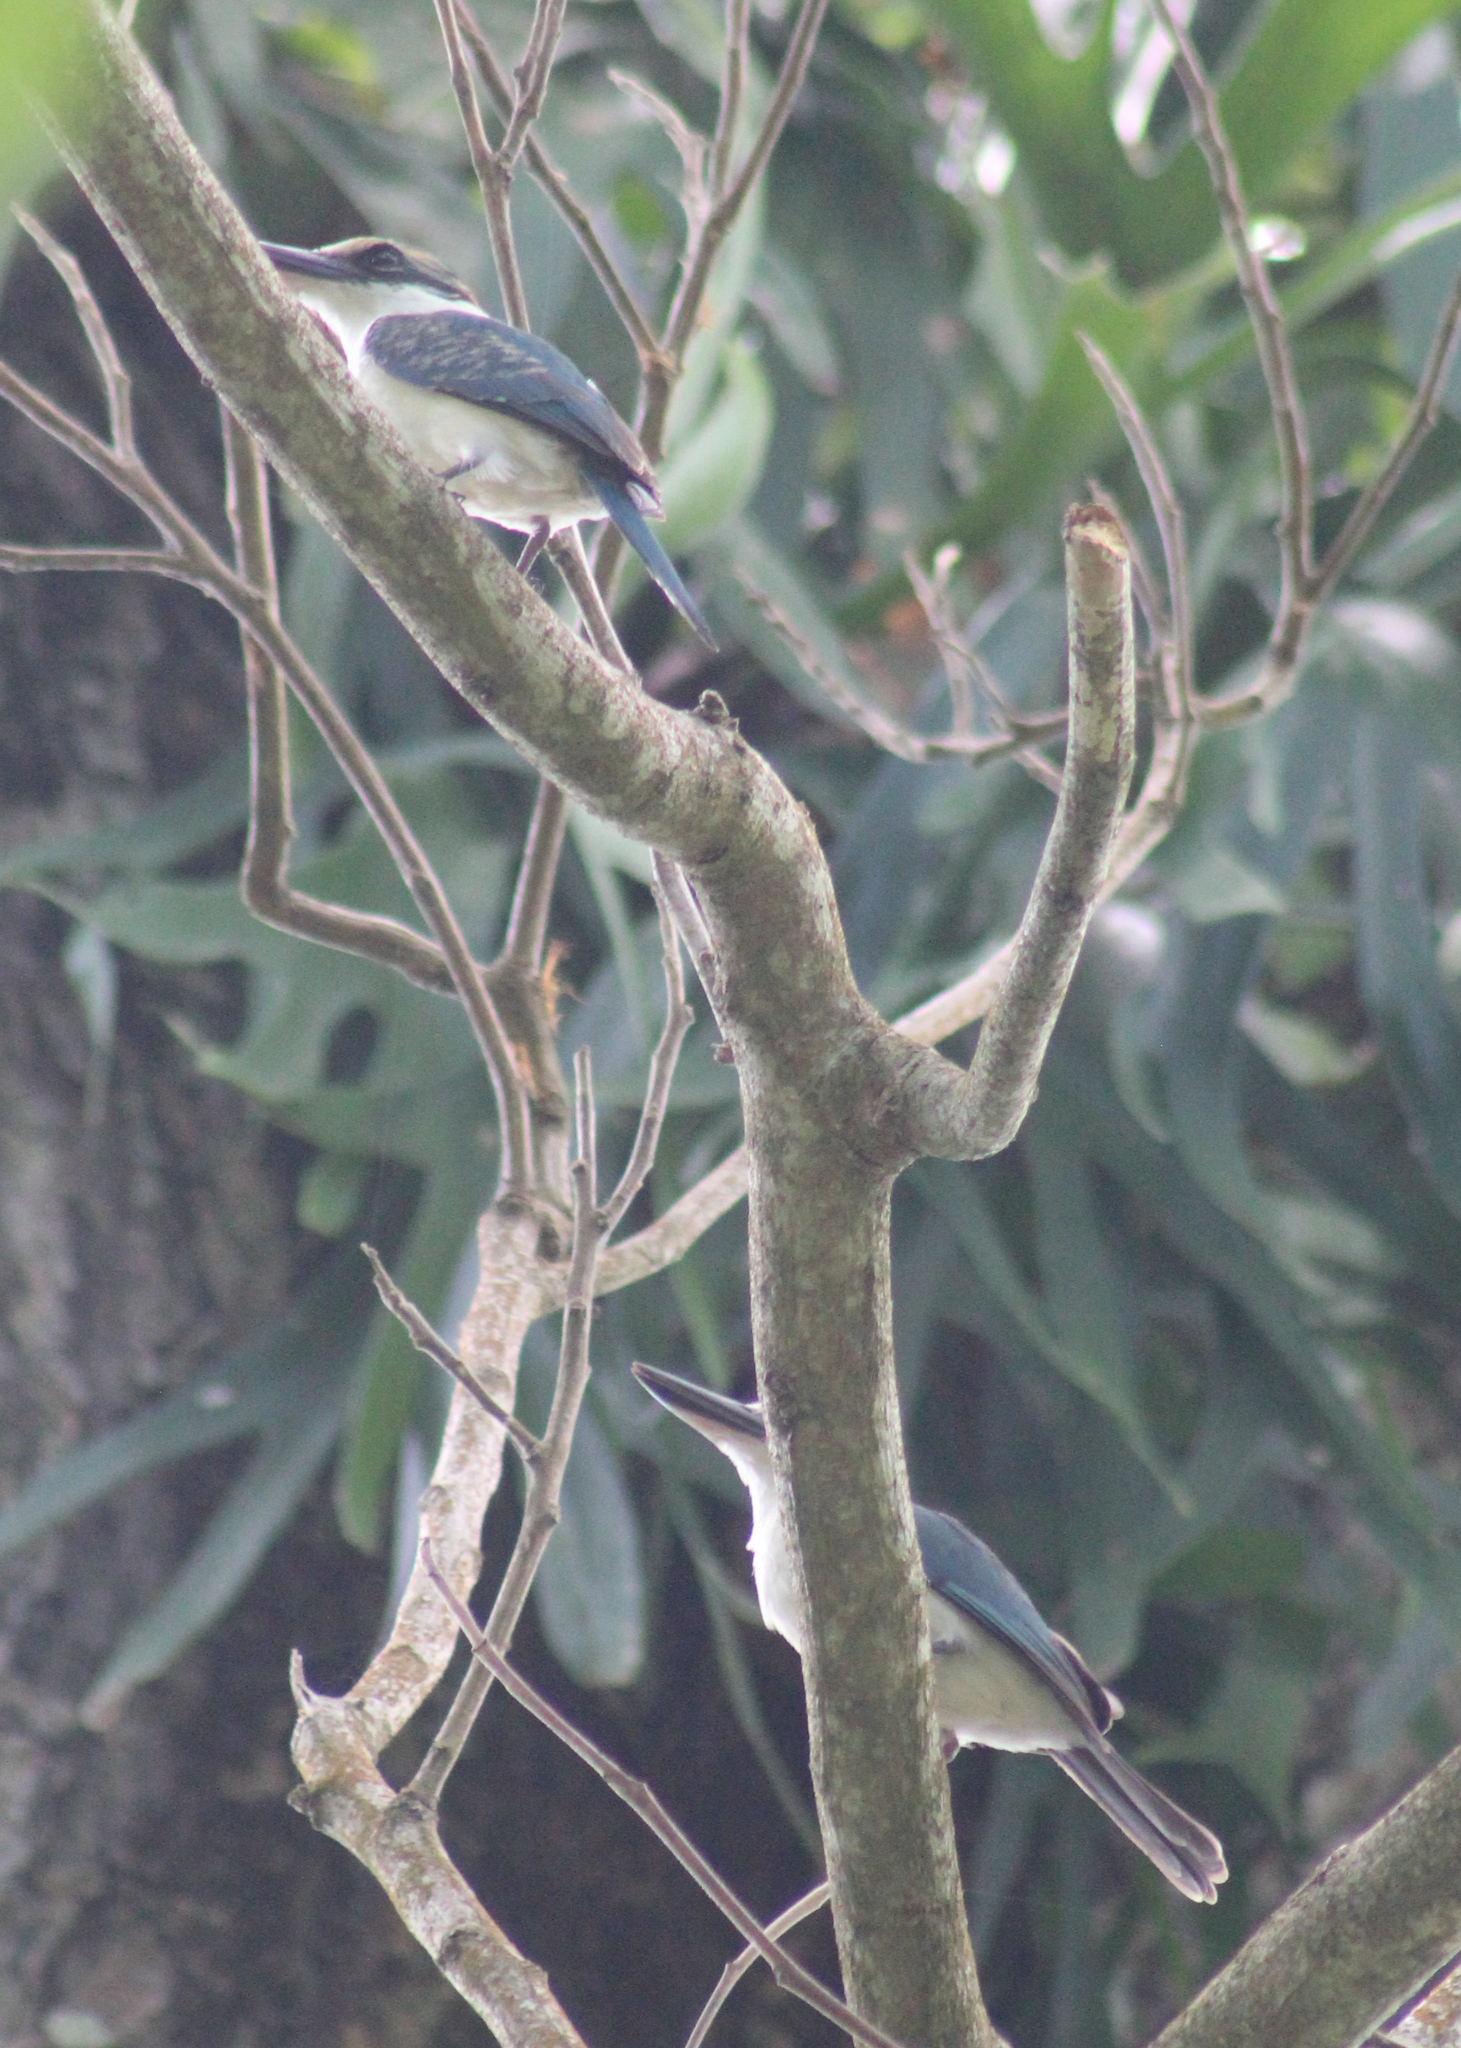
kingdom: Animalia
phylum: Chordata
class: Aves
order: Coraciiformes
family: Alcedinidae
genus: Todiramphus
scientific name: Todiramphus tutus
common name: Chattering kingfisher
